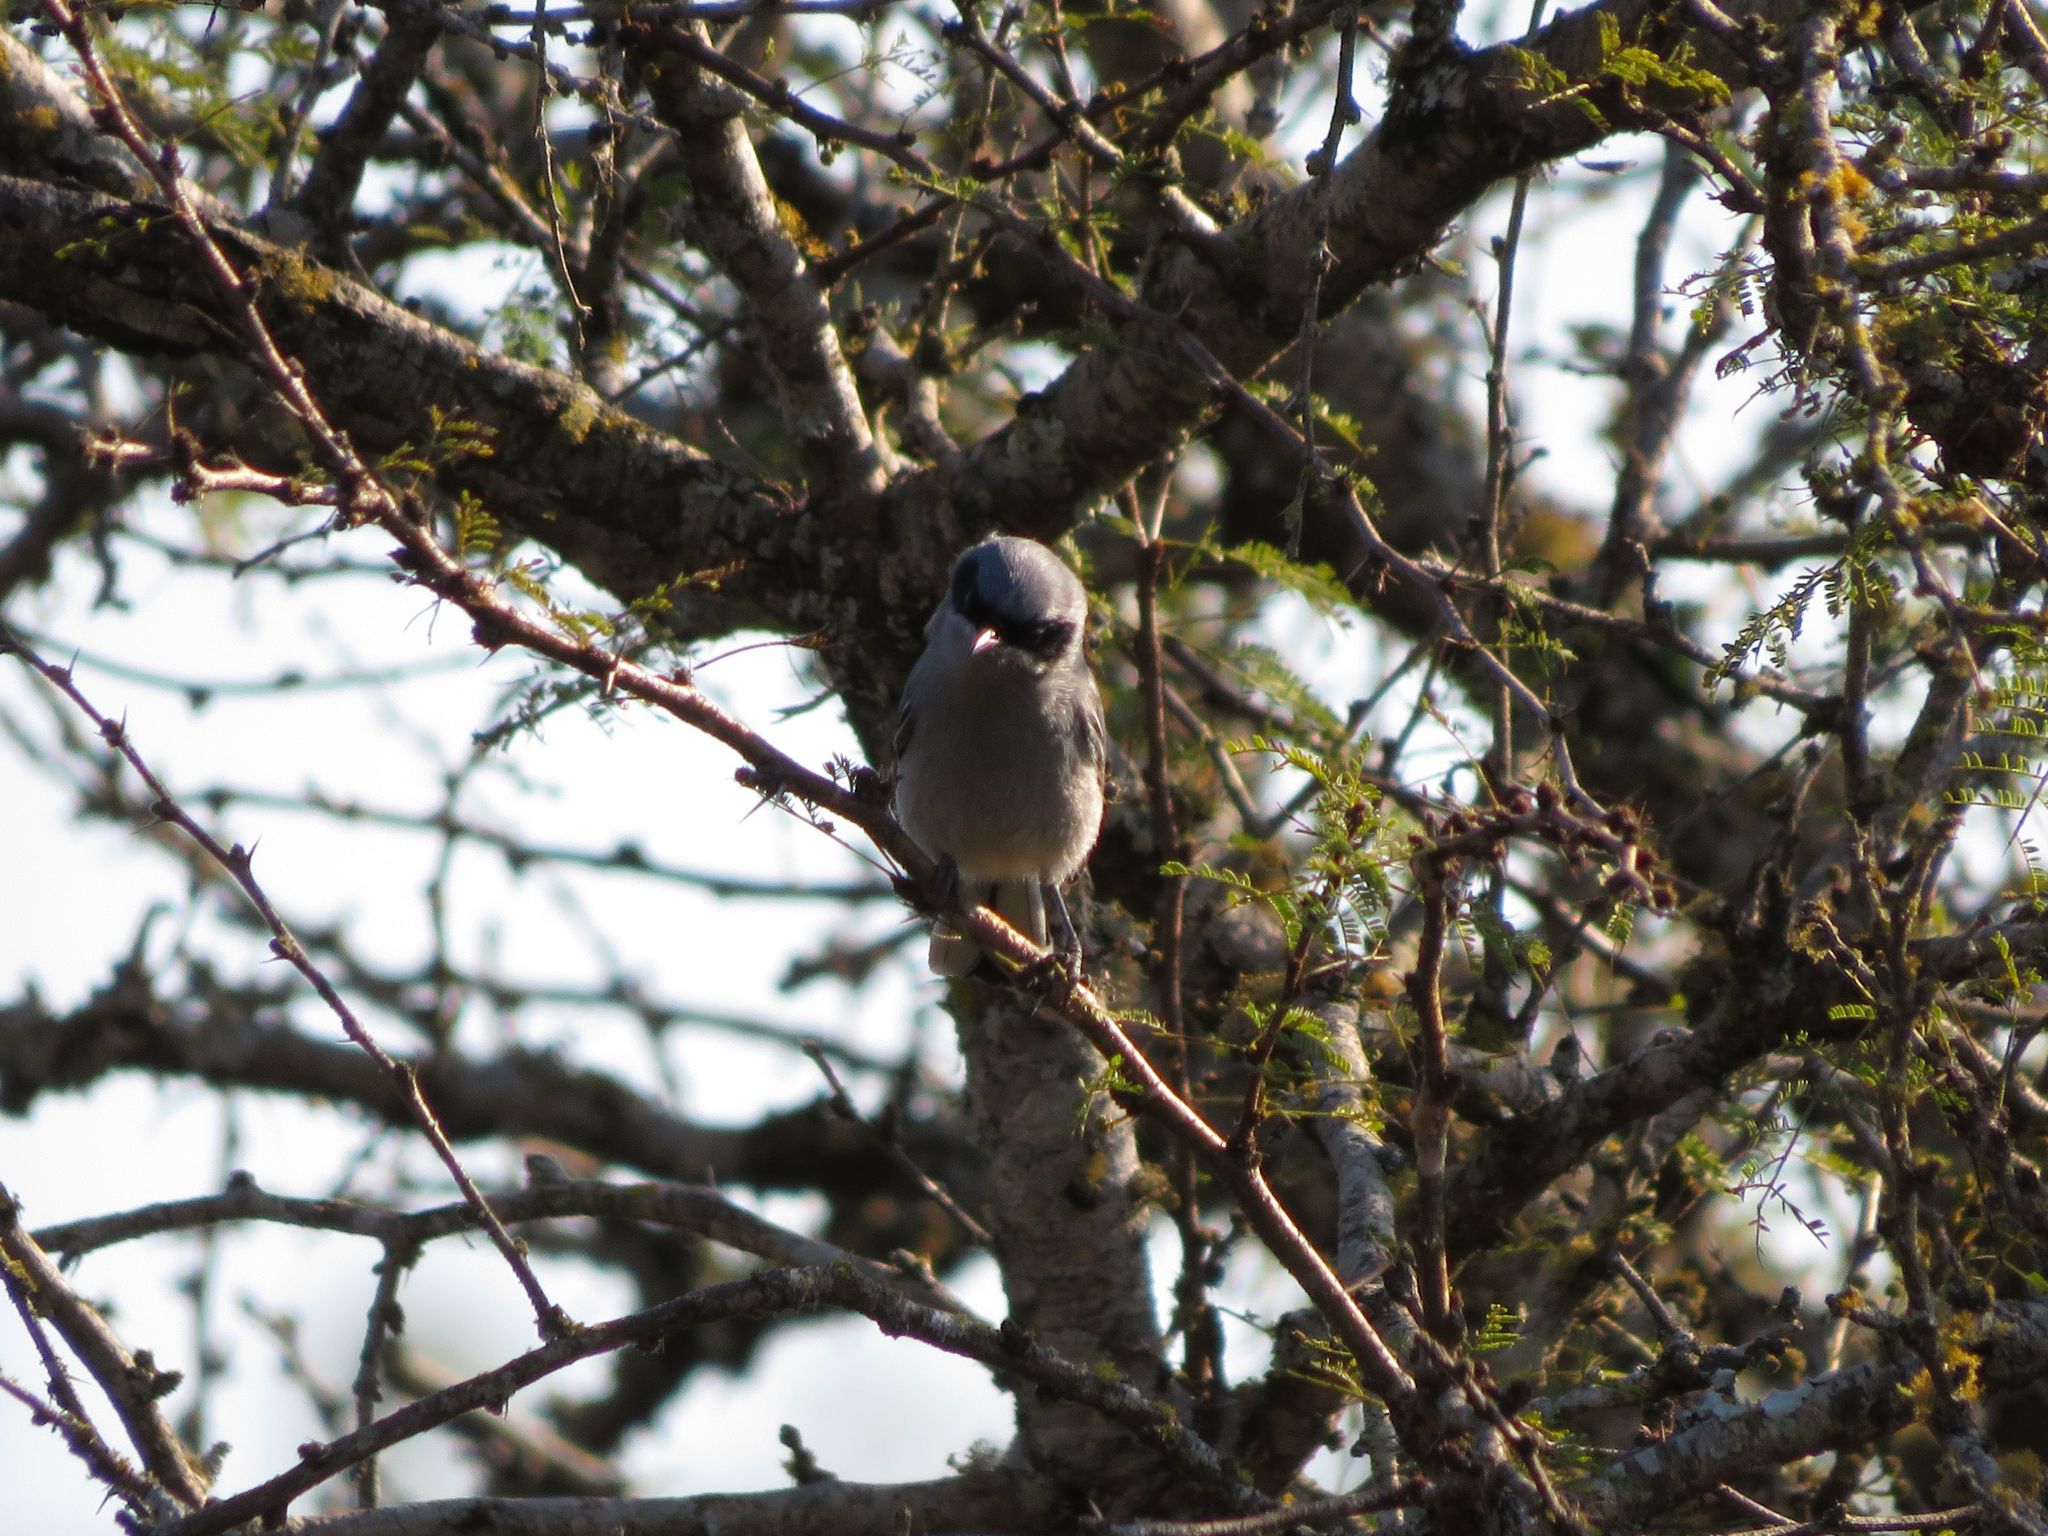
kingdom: Animalia
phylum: Chordata
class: Aves
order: Passeriformes
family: Polioptilidae
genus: Polioptila
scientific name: Polioptila dumicola
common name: Masked gnatcatcher
